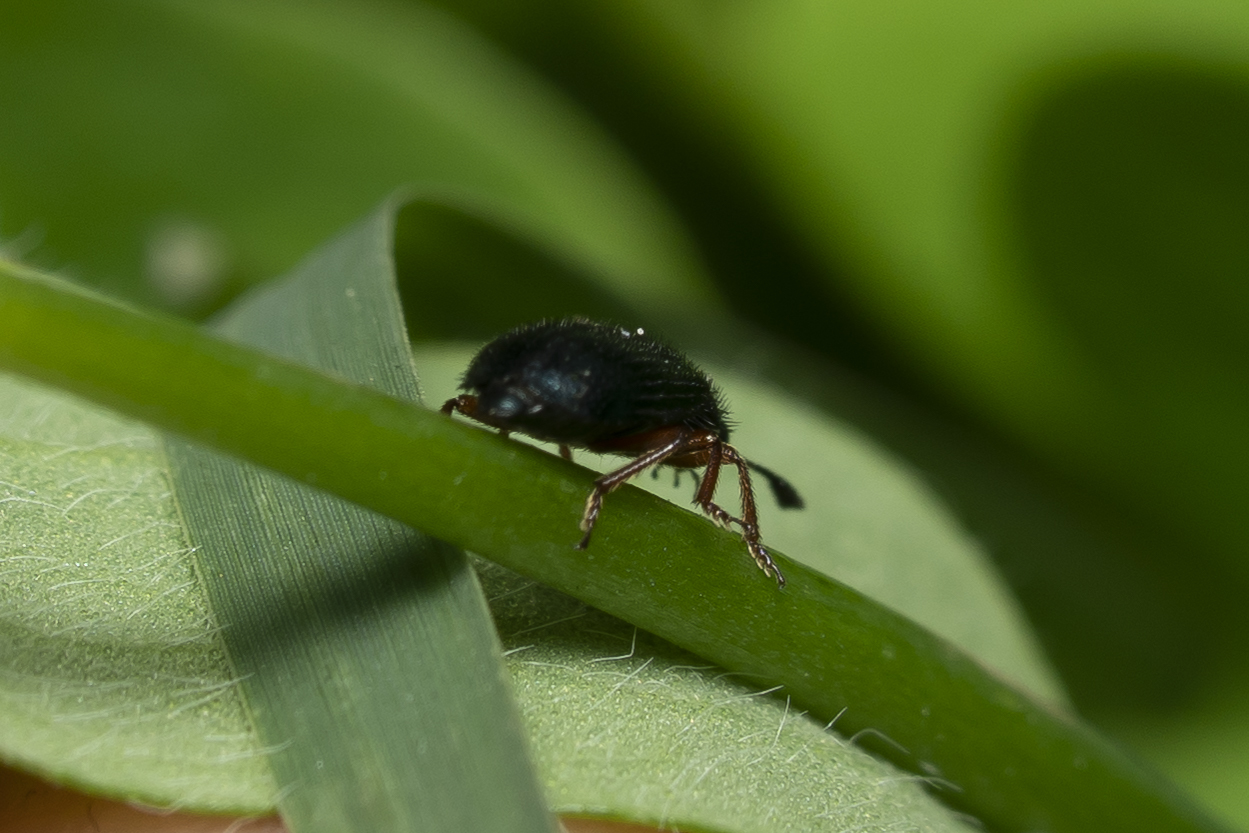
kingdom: Animalia
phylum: Arthropoda
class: Insecta
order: Coleoptera
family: Cleridae
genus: Necrobia
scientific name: Necrobia rufipes
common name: Red-legged ham beetle
